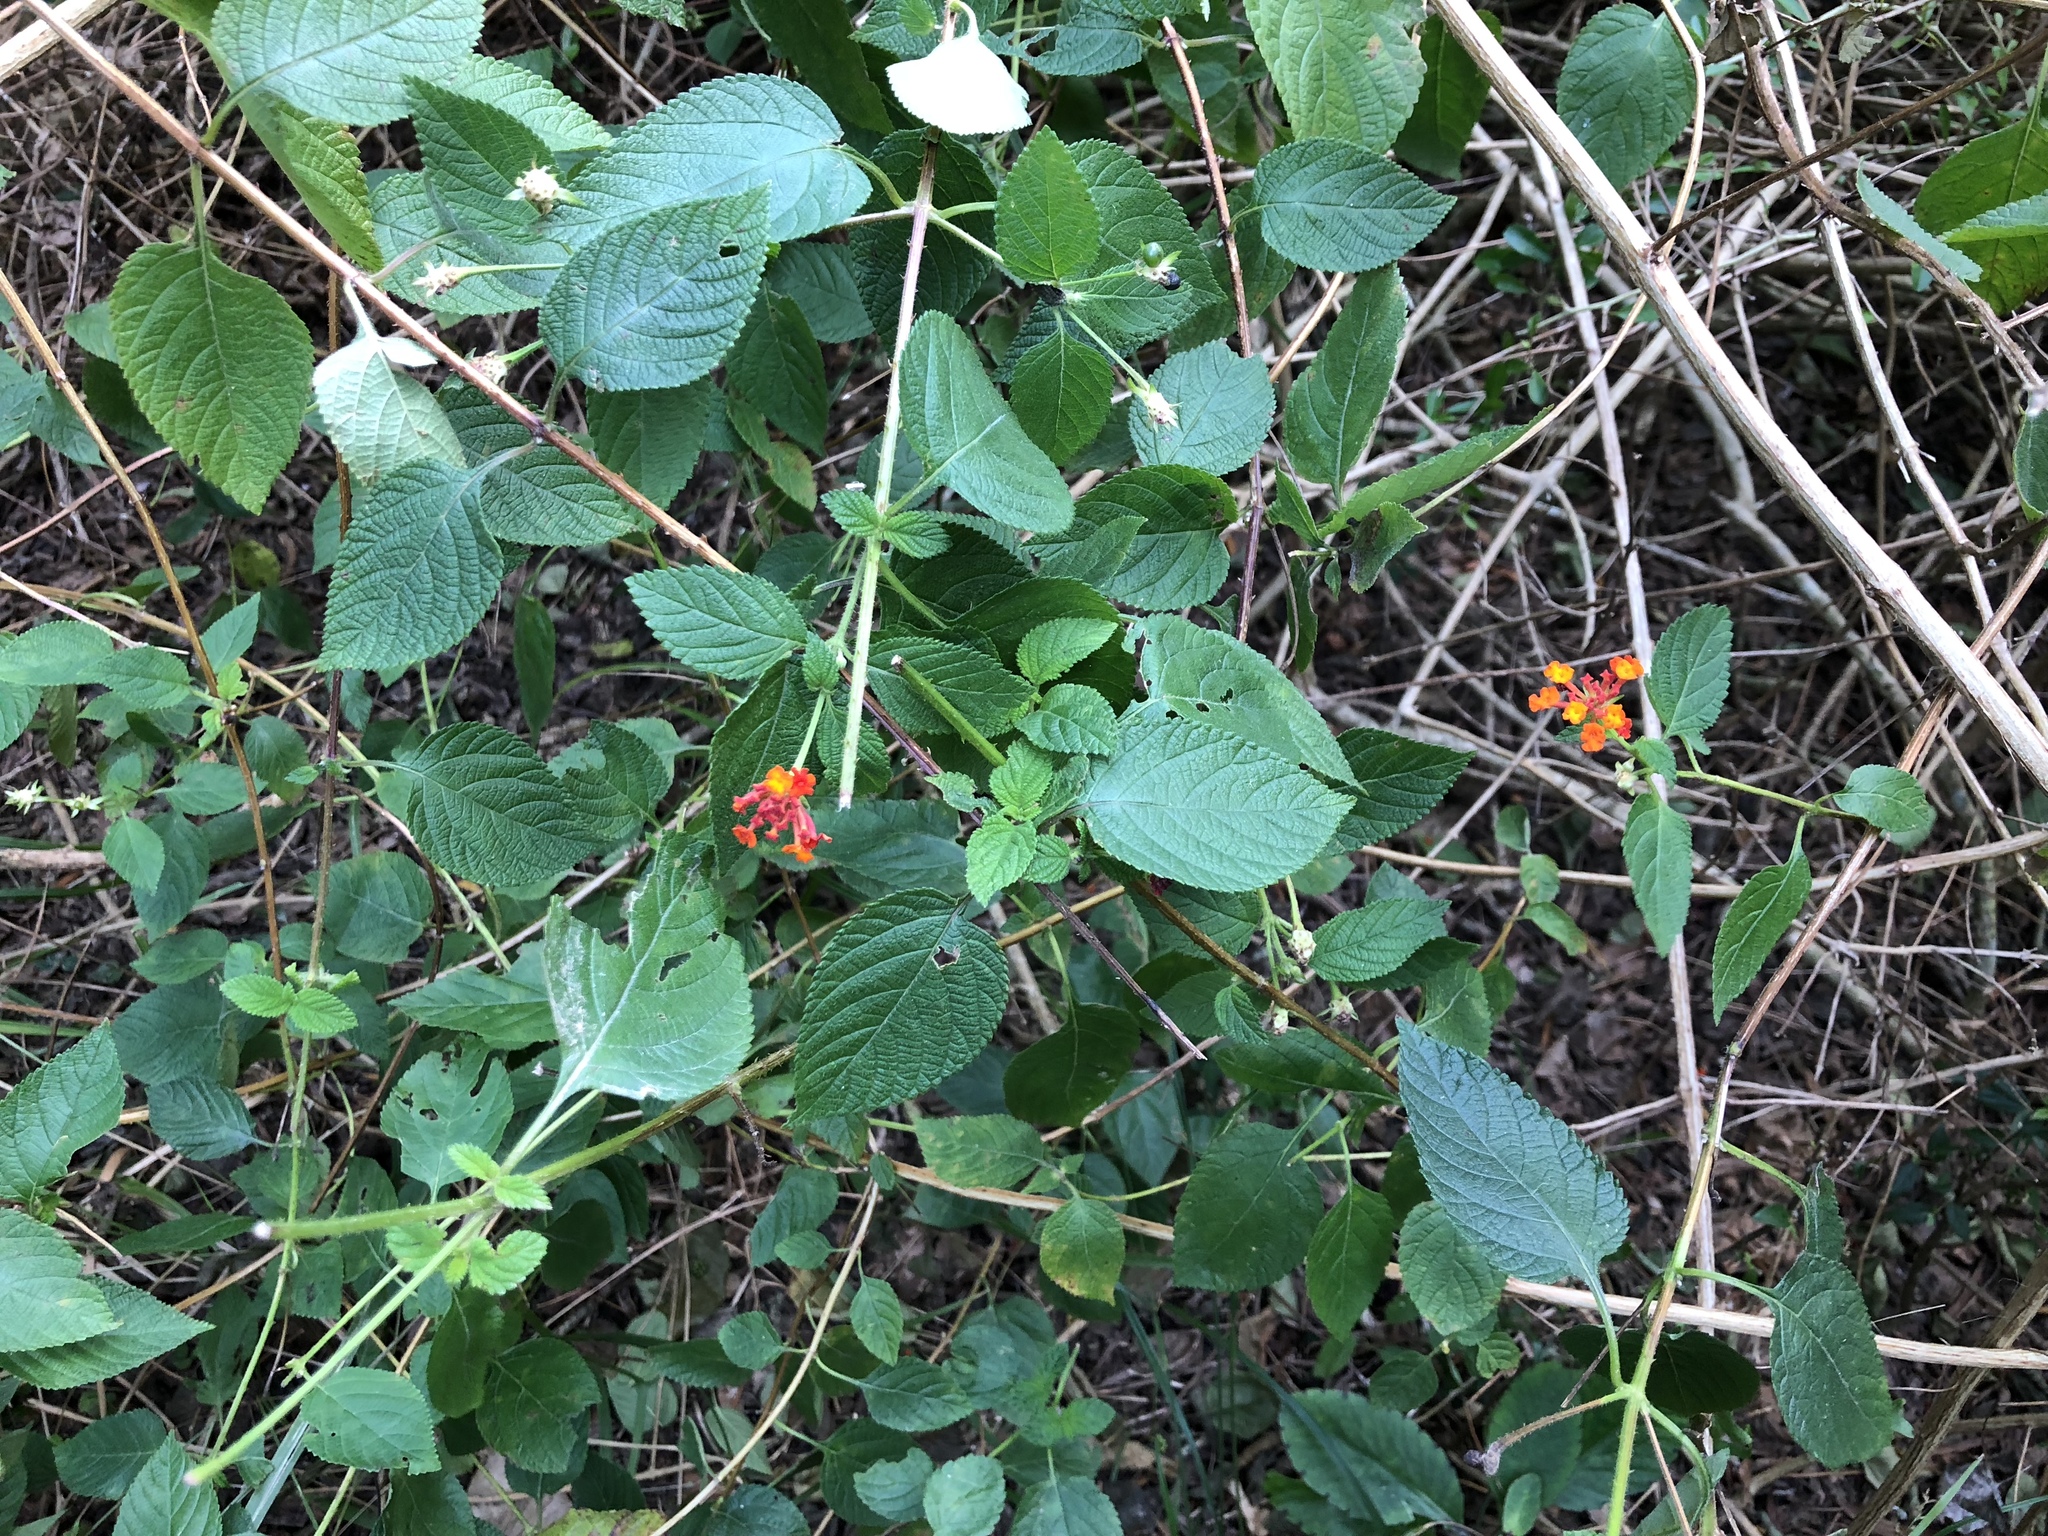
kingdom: Plantae
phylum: Tracheophyta
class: Magnoliopsida
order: Lamiales
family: Verbenaceae
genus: Lantana
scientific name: Lantana camara
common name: Lantana
